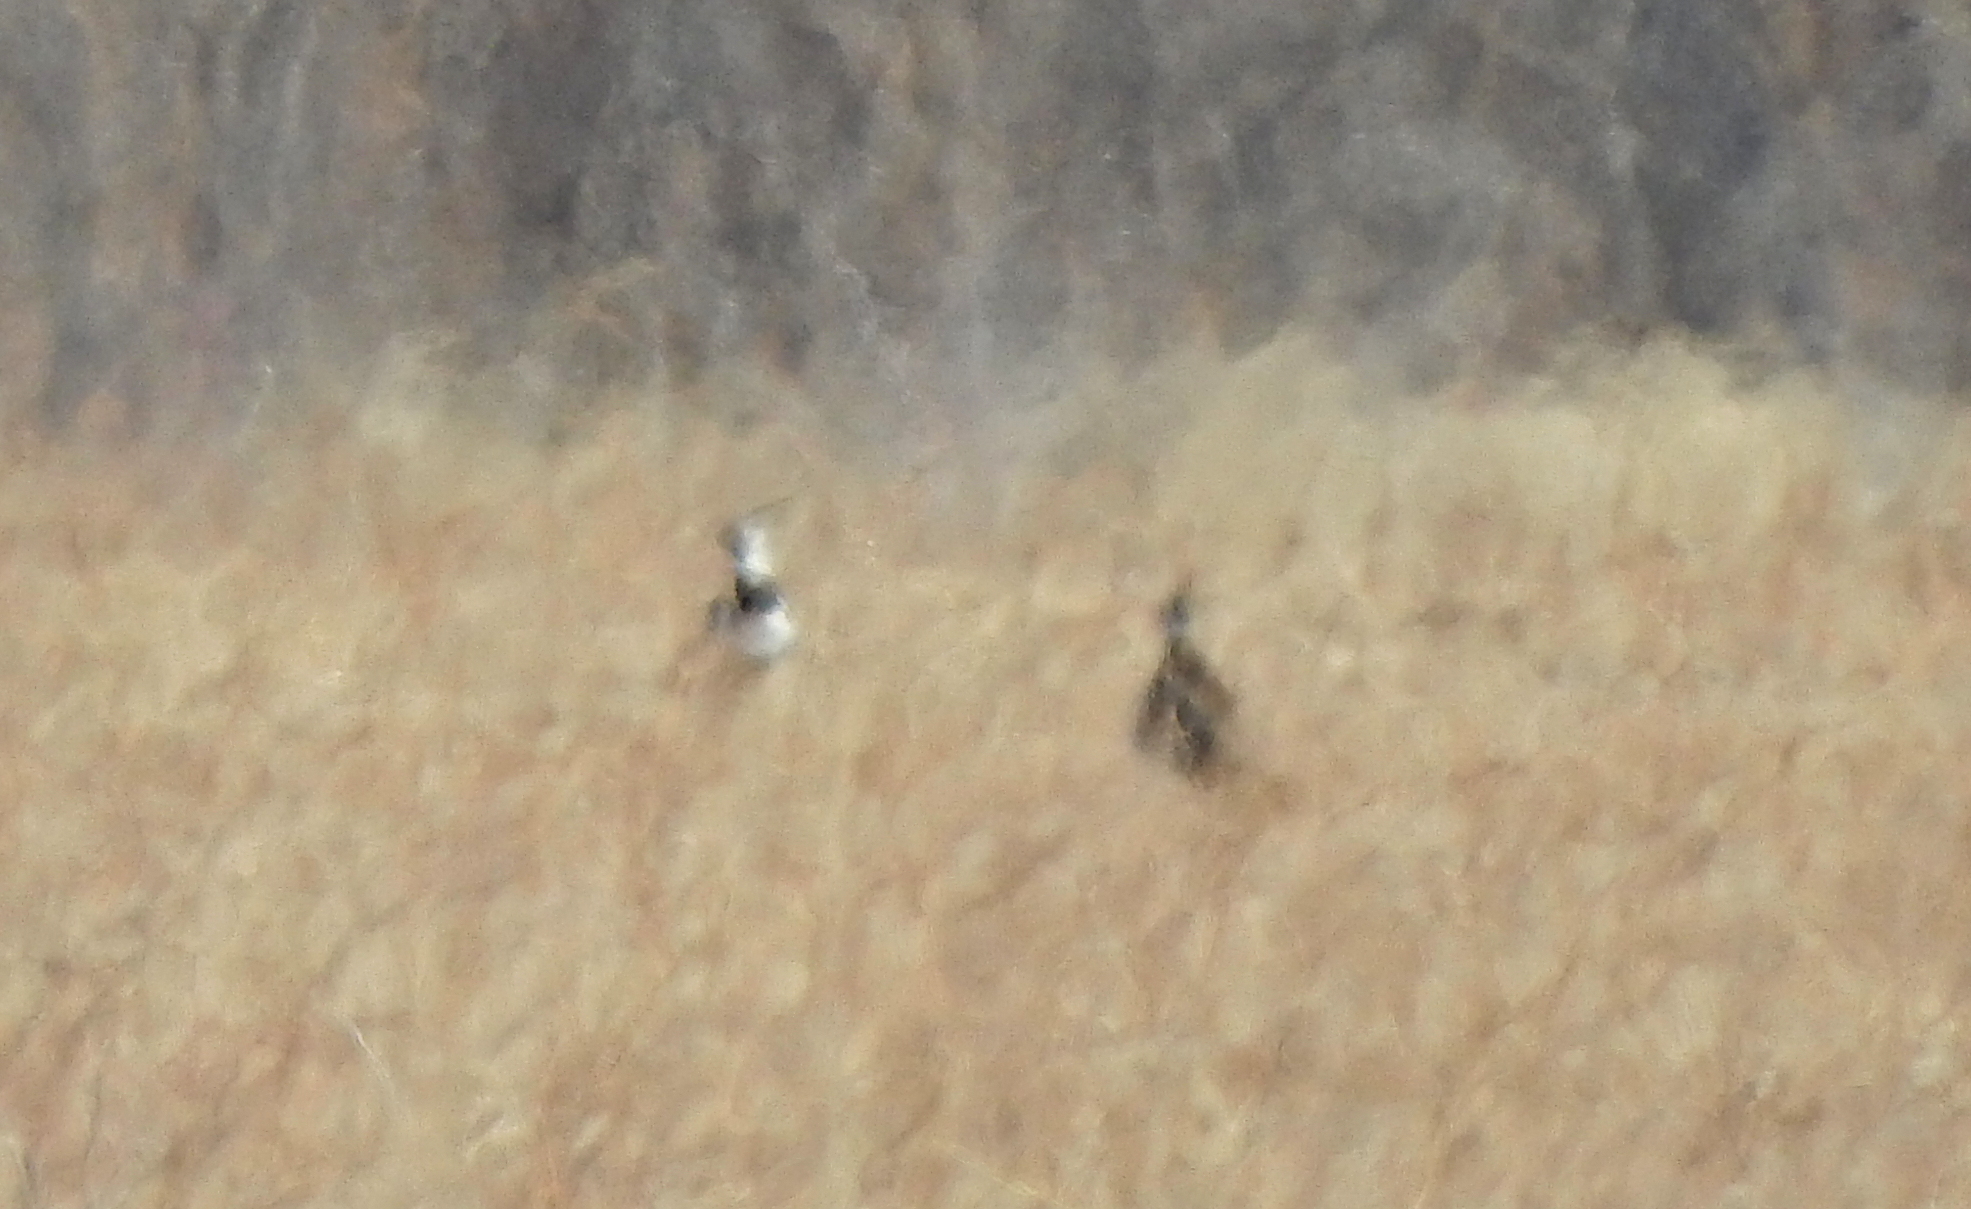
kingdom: Animalia
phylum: Chordata
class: Aves
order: Charadriiformes
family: Charadriidae
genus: Vanellus
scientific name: Vanellus vanellus
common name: Northern lapwing
